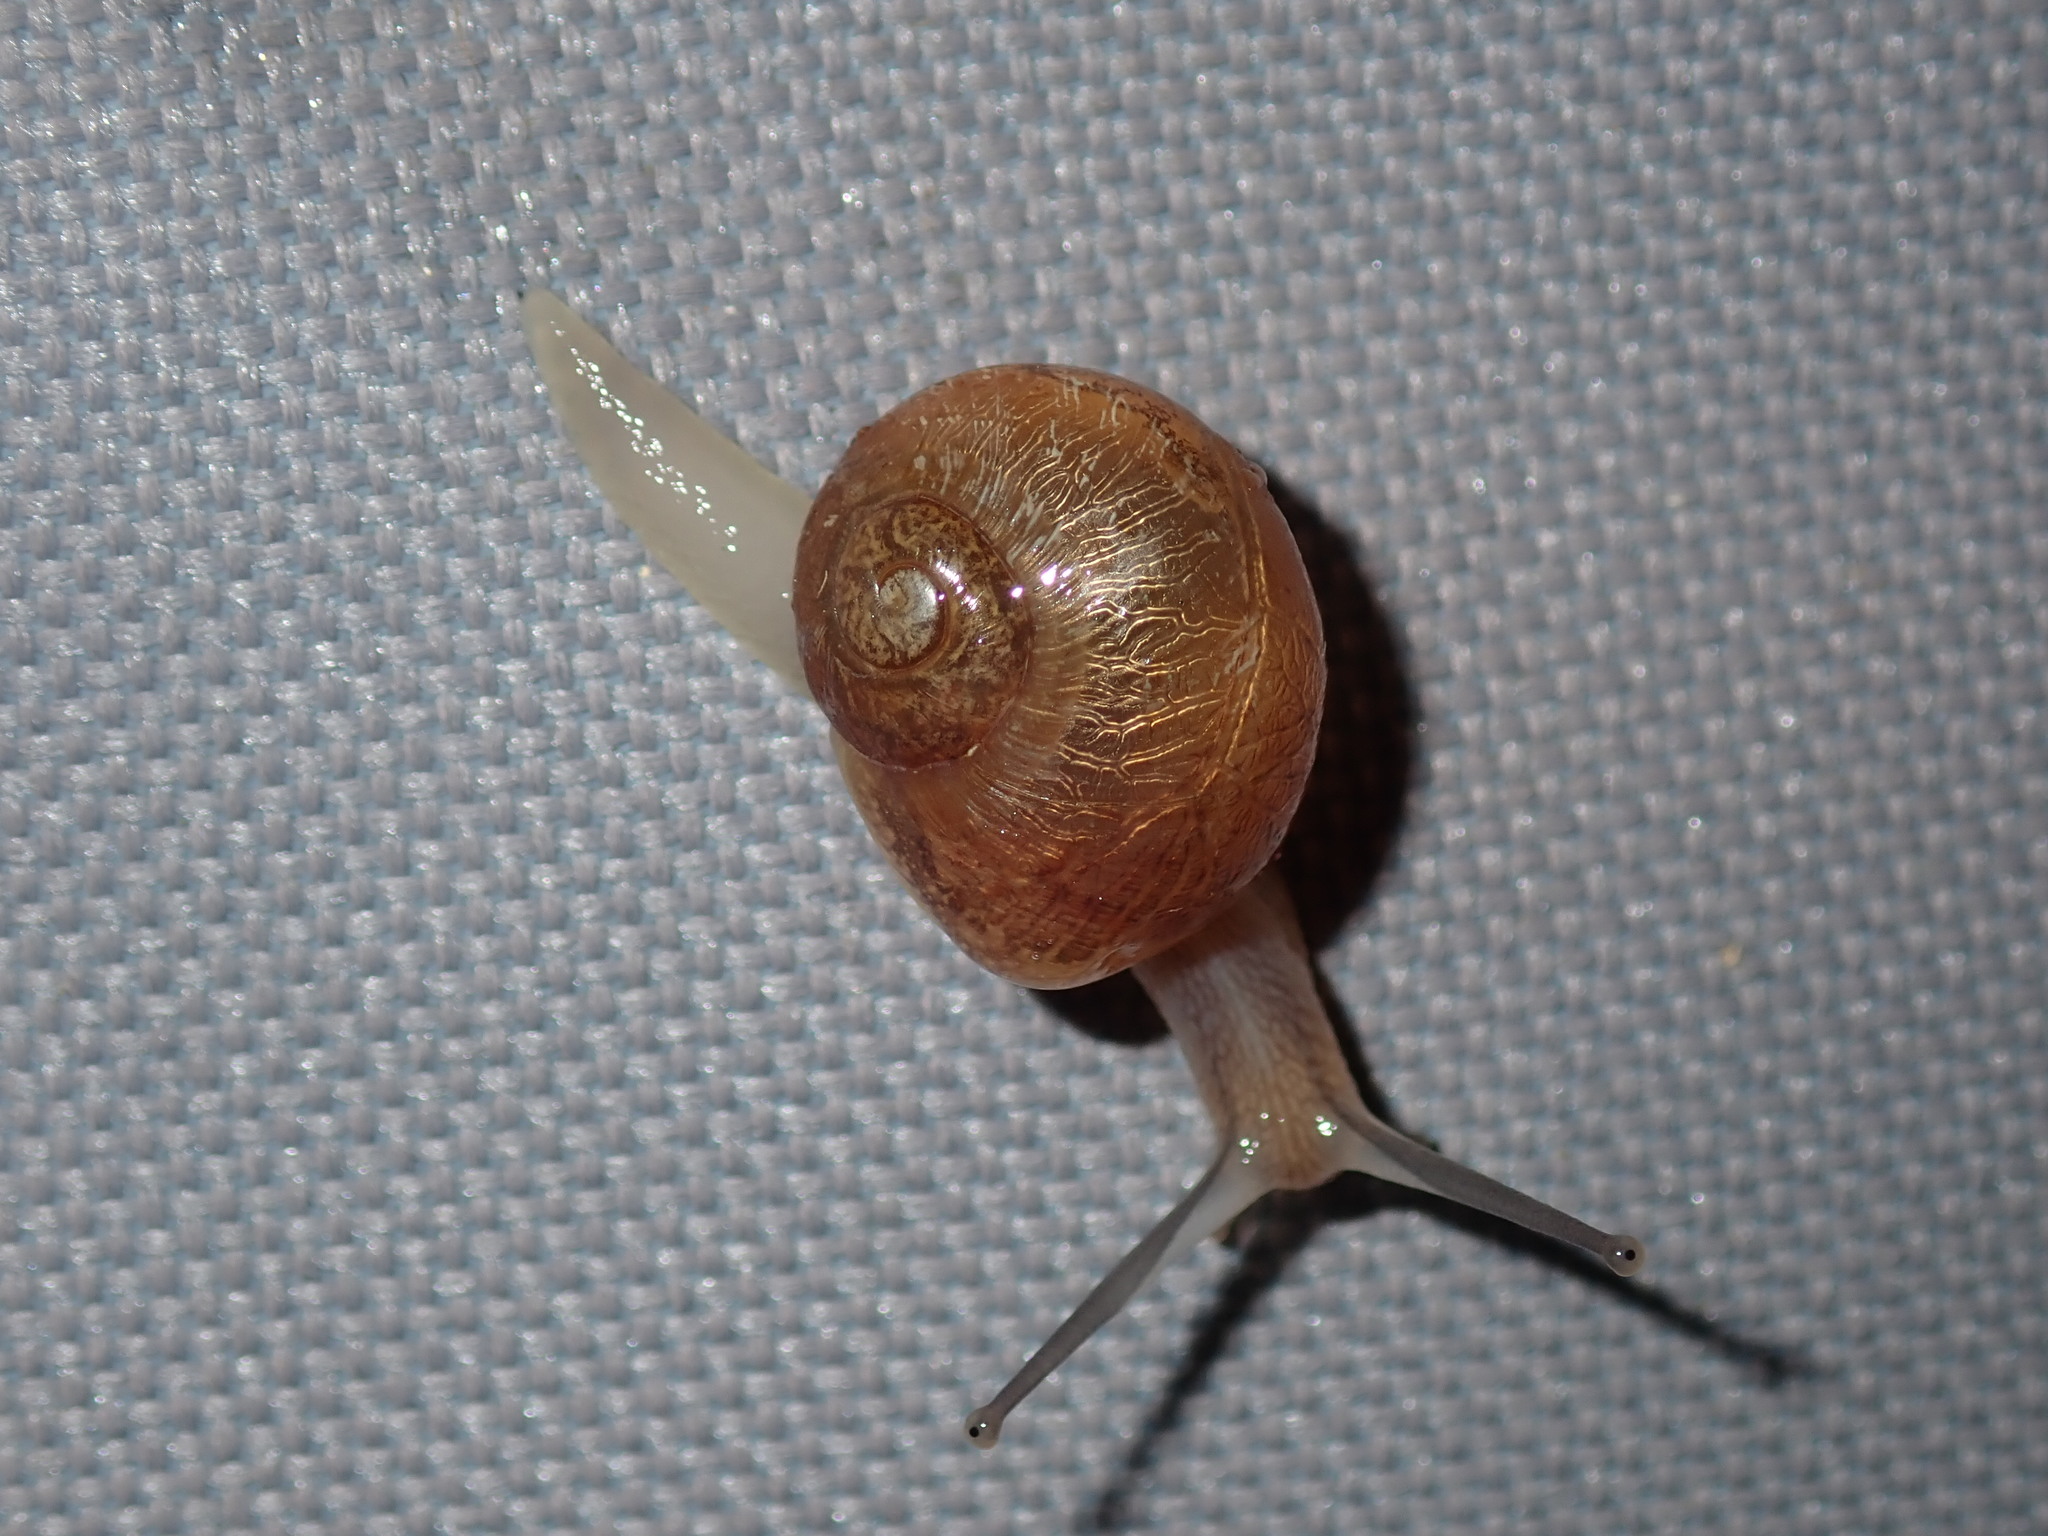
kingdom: Animalia
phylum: Mollusca
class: Gastropoda
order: Stylommatophora
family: Helicidae
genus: Cornu
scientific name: Cornu aspersum
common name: Brown garden snail
